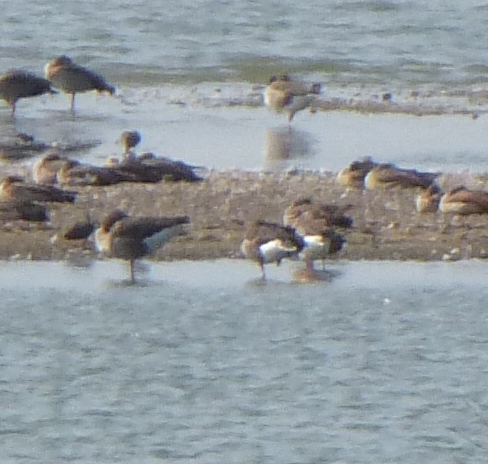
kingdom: Animalia
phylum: Chordata
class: Aves
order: Anseriformes
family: Anatidae
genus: Anser
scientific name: Anser anser
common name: Greylag goose
